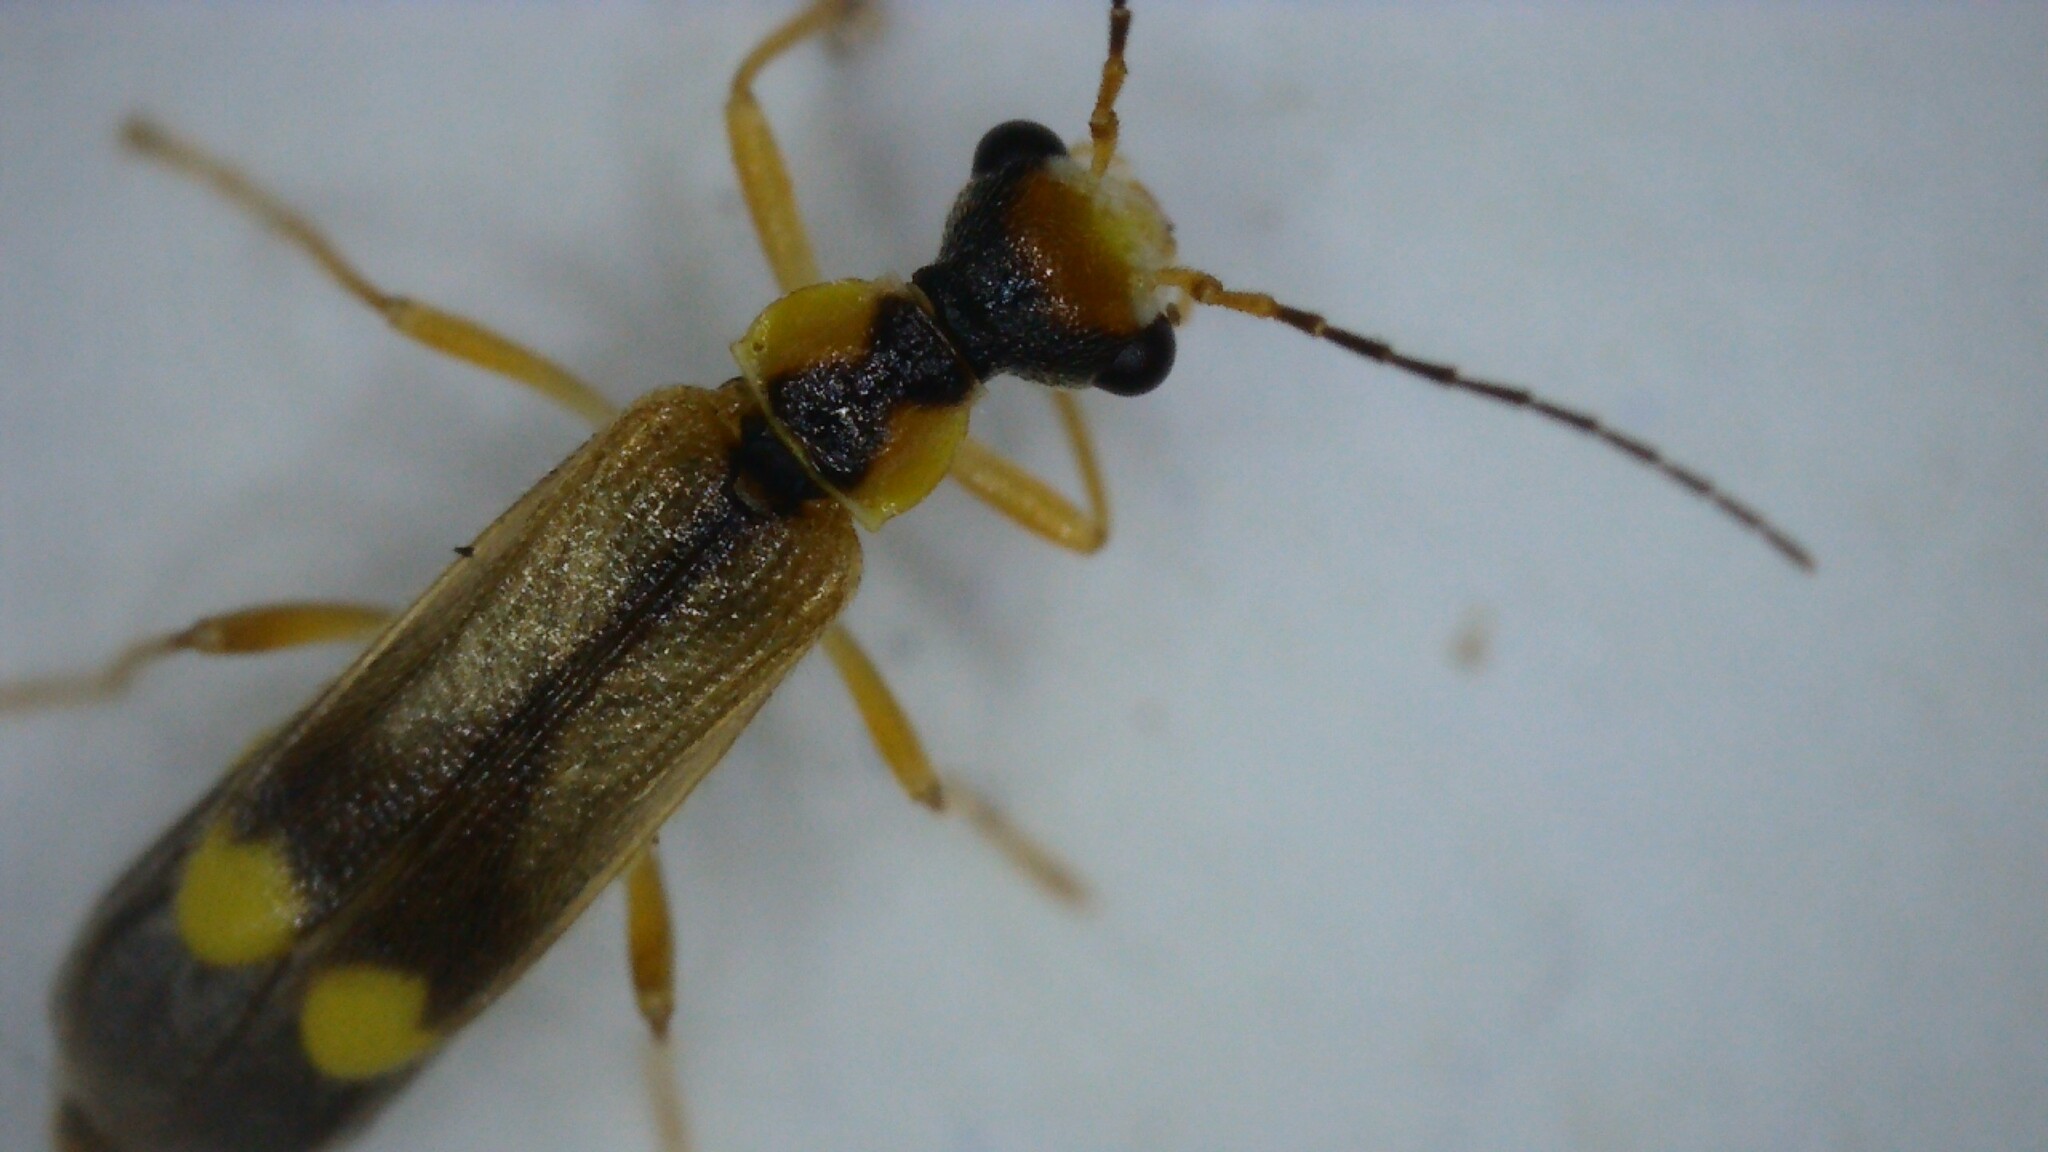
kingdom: Animalia
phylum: Arthropoda
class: Insecta
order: Coleoptera
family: Cantharidae
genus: Malthinus
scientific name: Malthinus seriepunctatus
